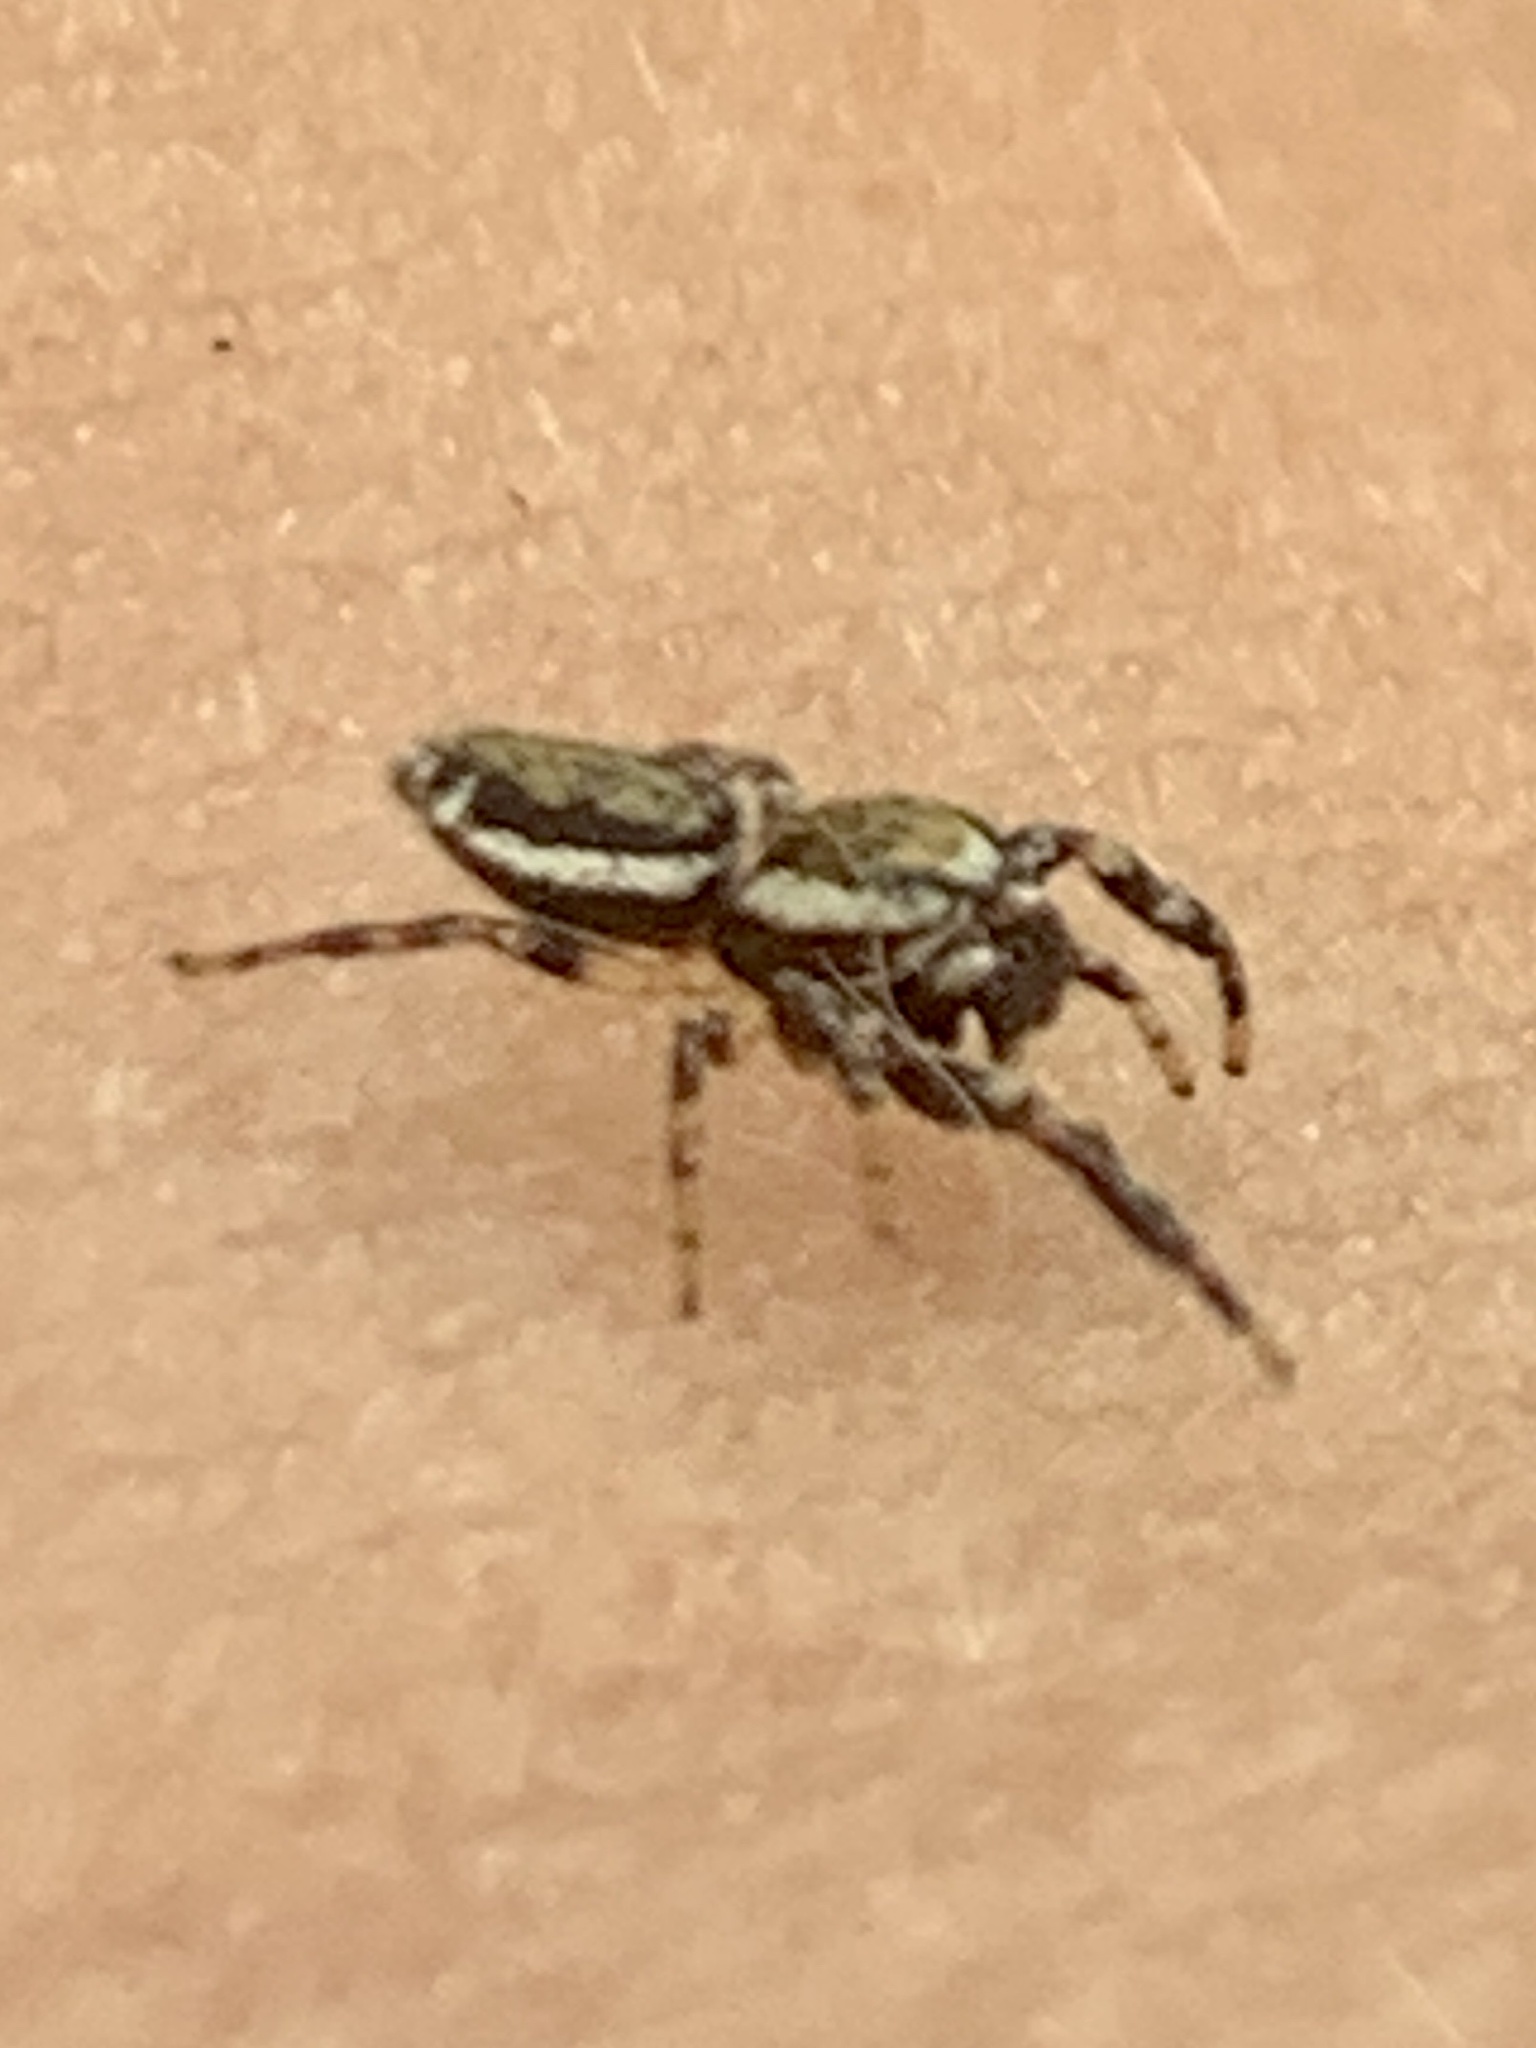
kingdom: Animalia
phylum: Arthropoda
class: Arachnida
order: Araneae
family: Salticidae
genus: Eris
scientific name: Eris militaris
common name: Bronze jumper
